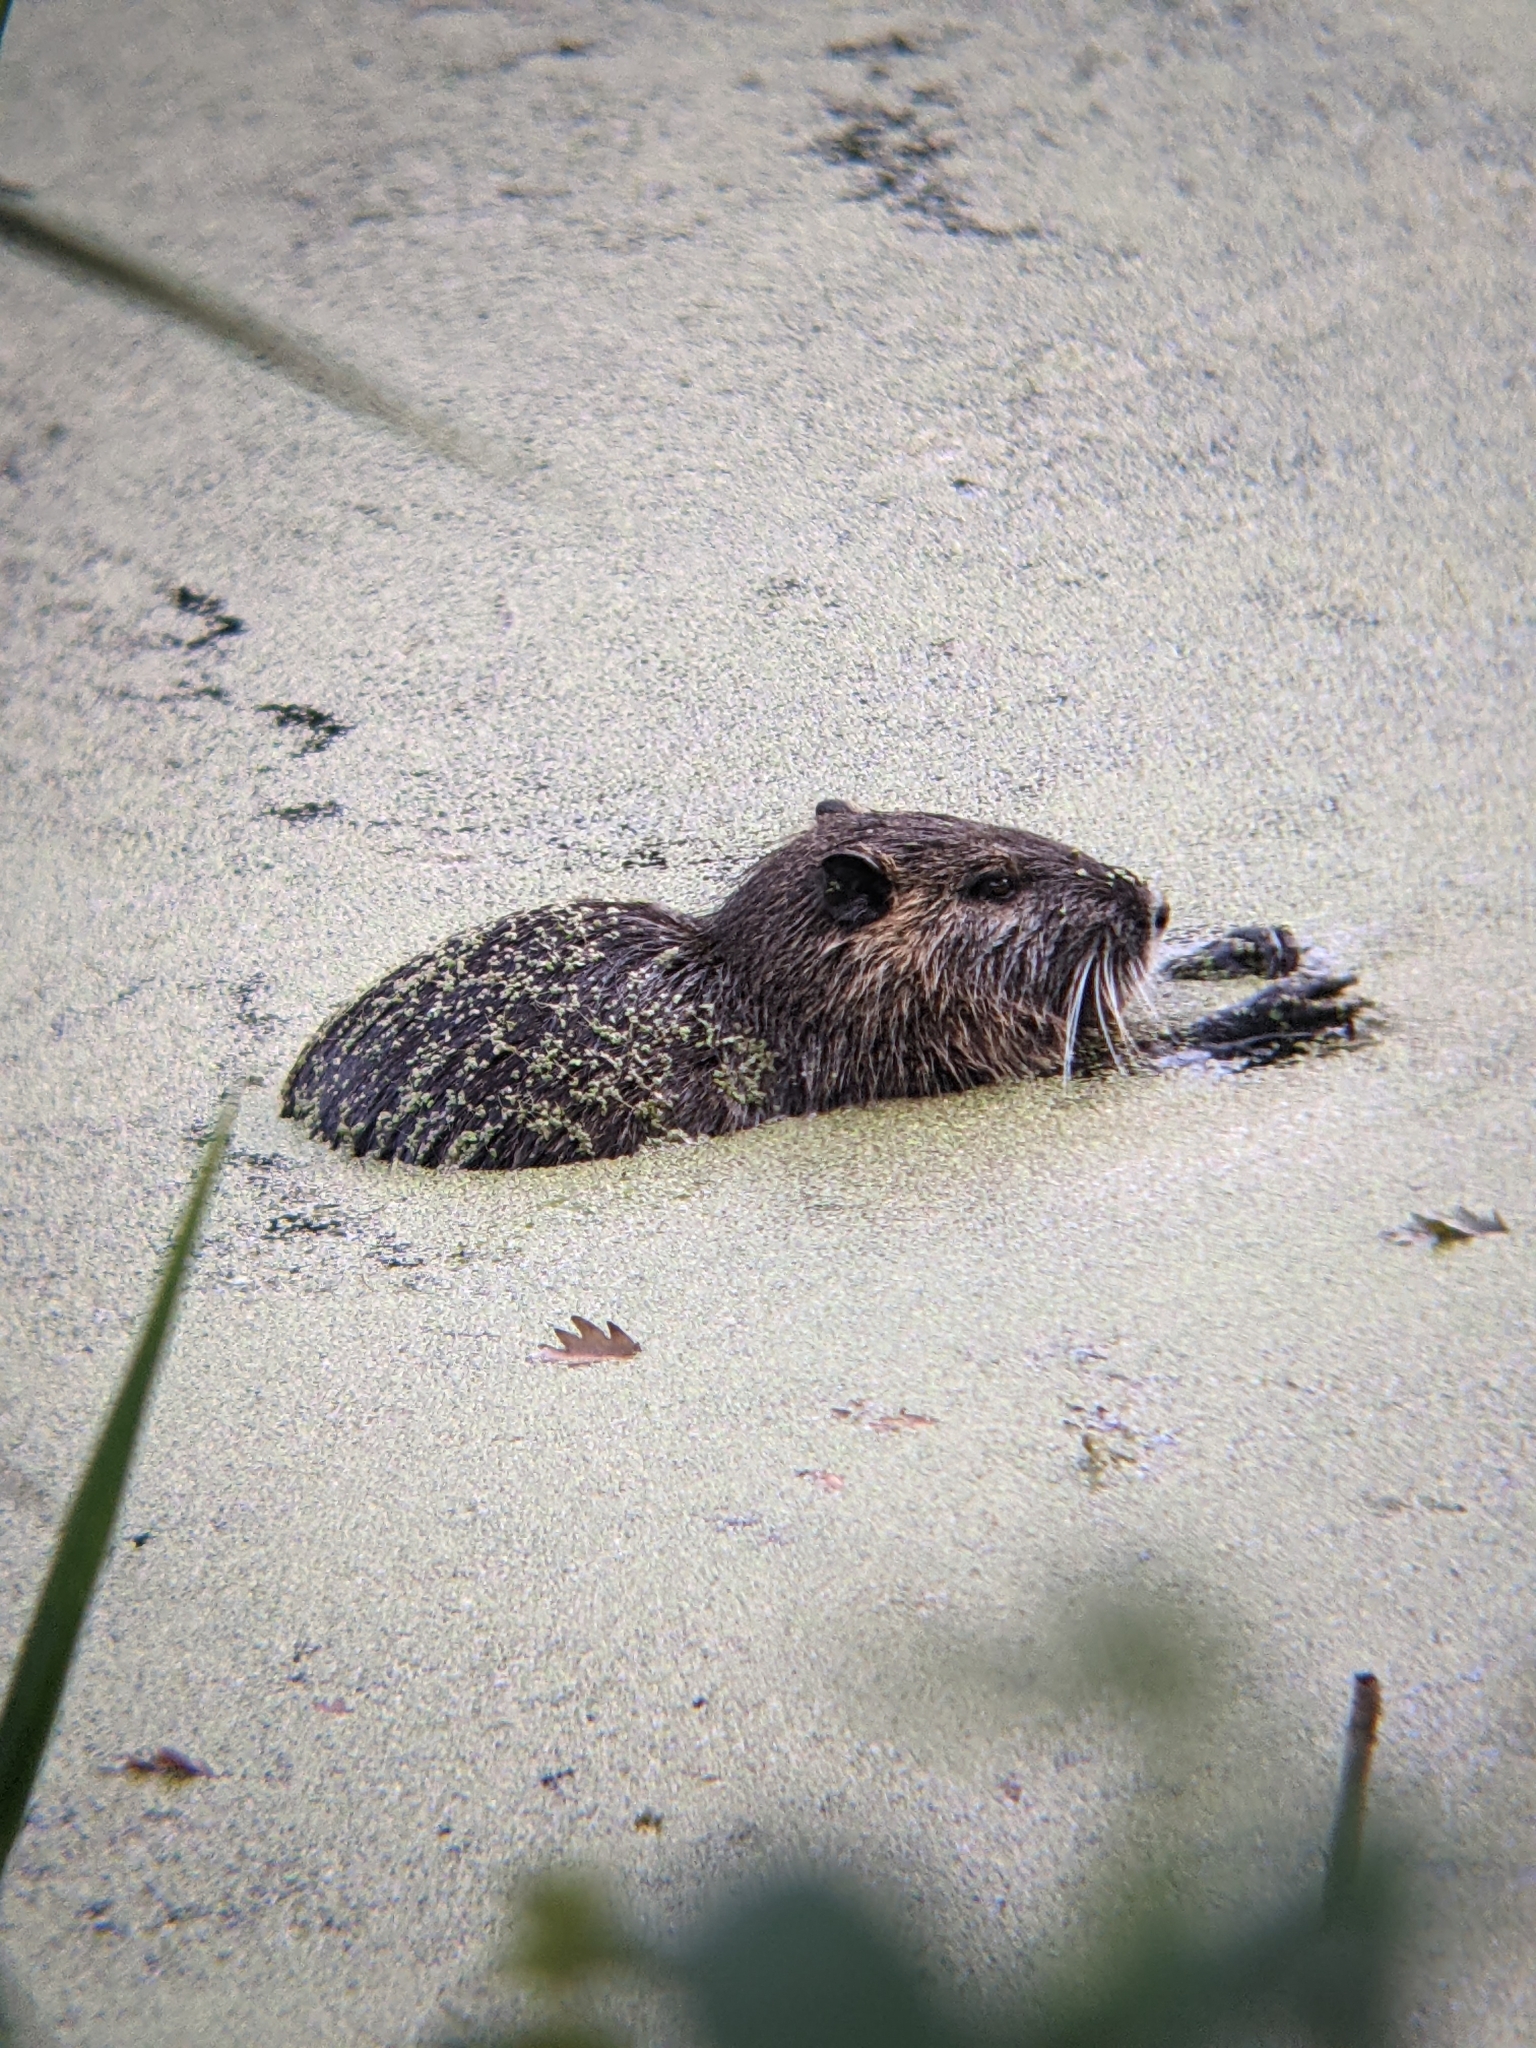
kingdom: Animalia
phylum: Chordata
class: Mammalia
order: Rodentia
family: Myocastoridae
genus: Myocastor
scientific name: Myocastor coypus
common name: Coypu
